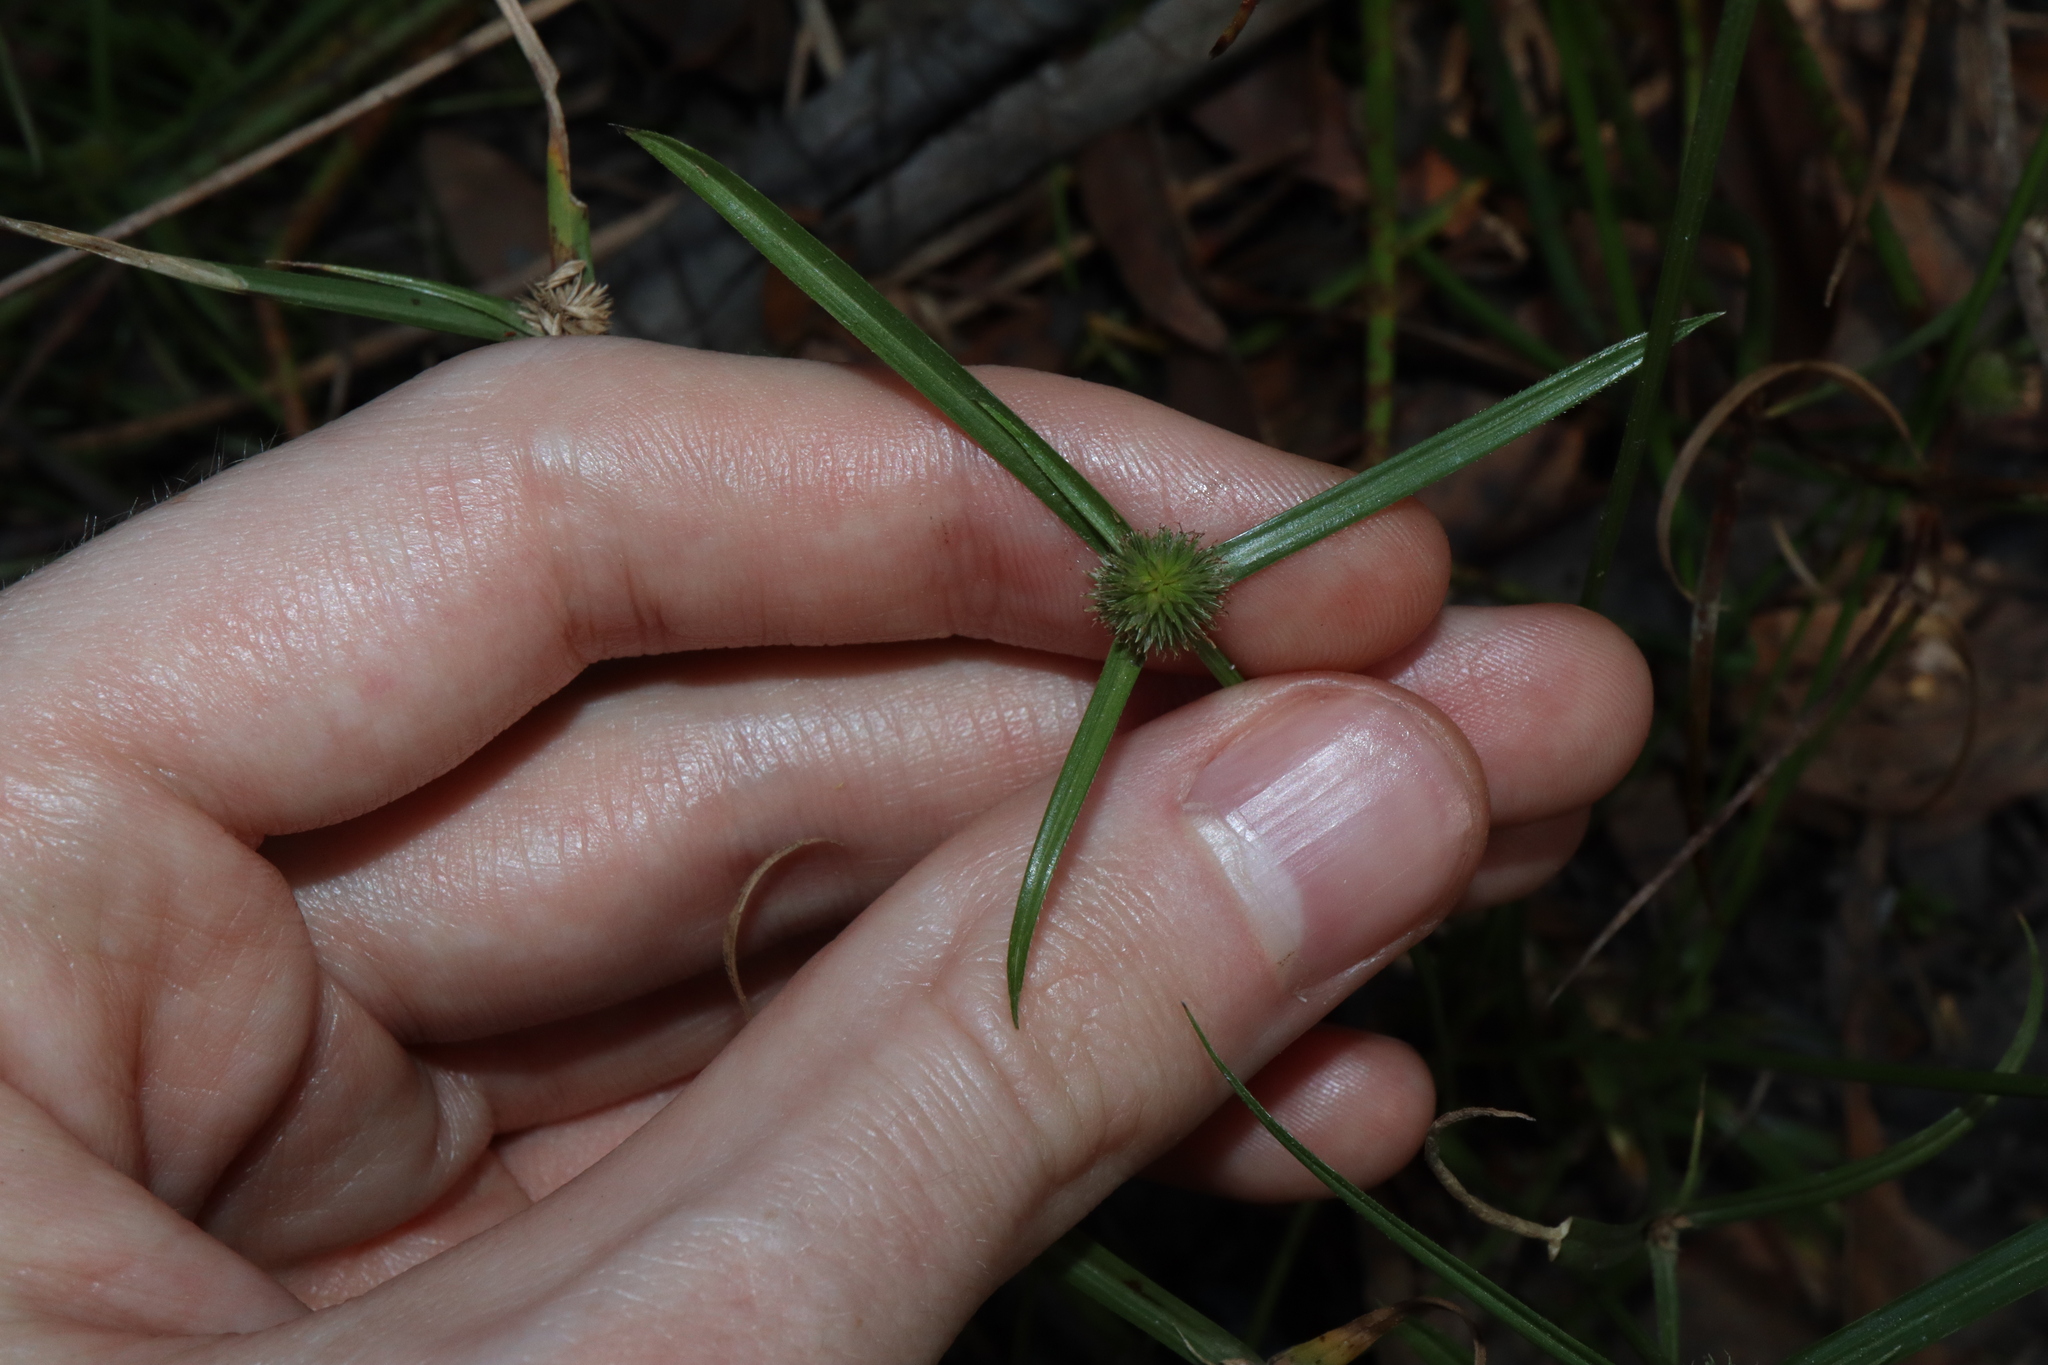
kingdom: Plantae
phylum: Tracheophyta
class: Liliopsida
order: Poales
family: Cyperaceae
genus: Cyperus
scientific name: Cyperus brevifolius
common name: Globe kyllinga
